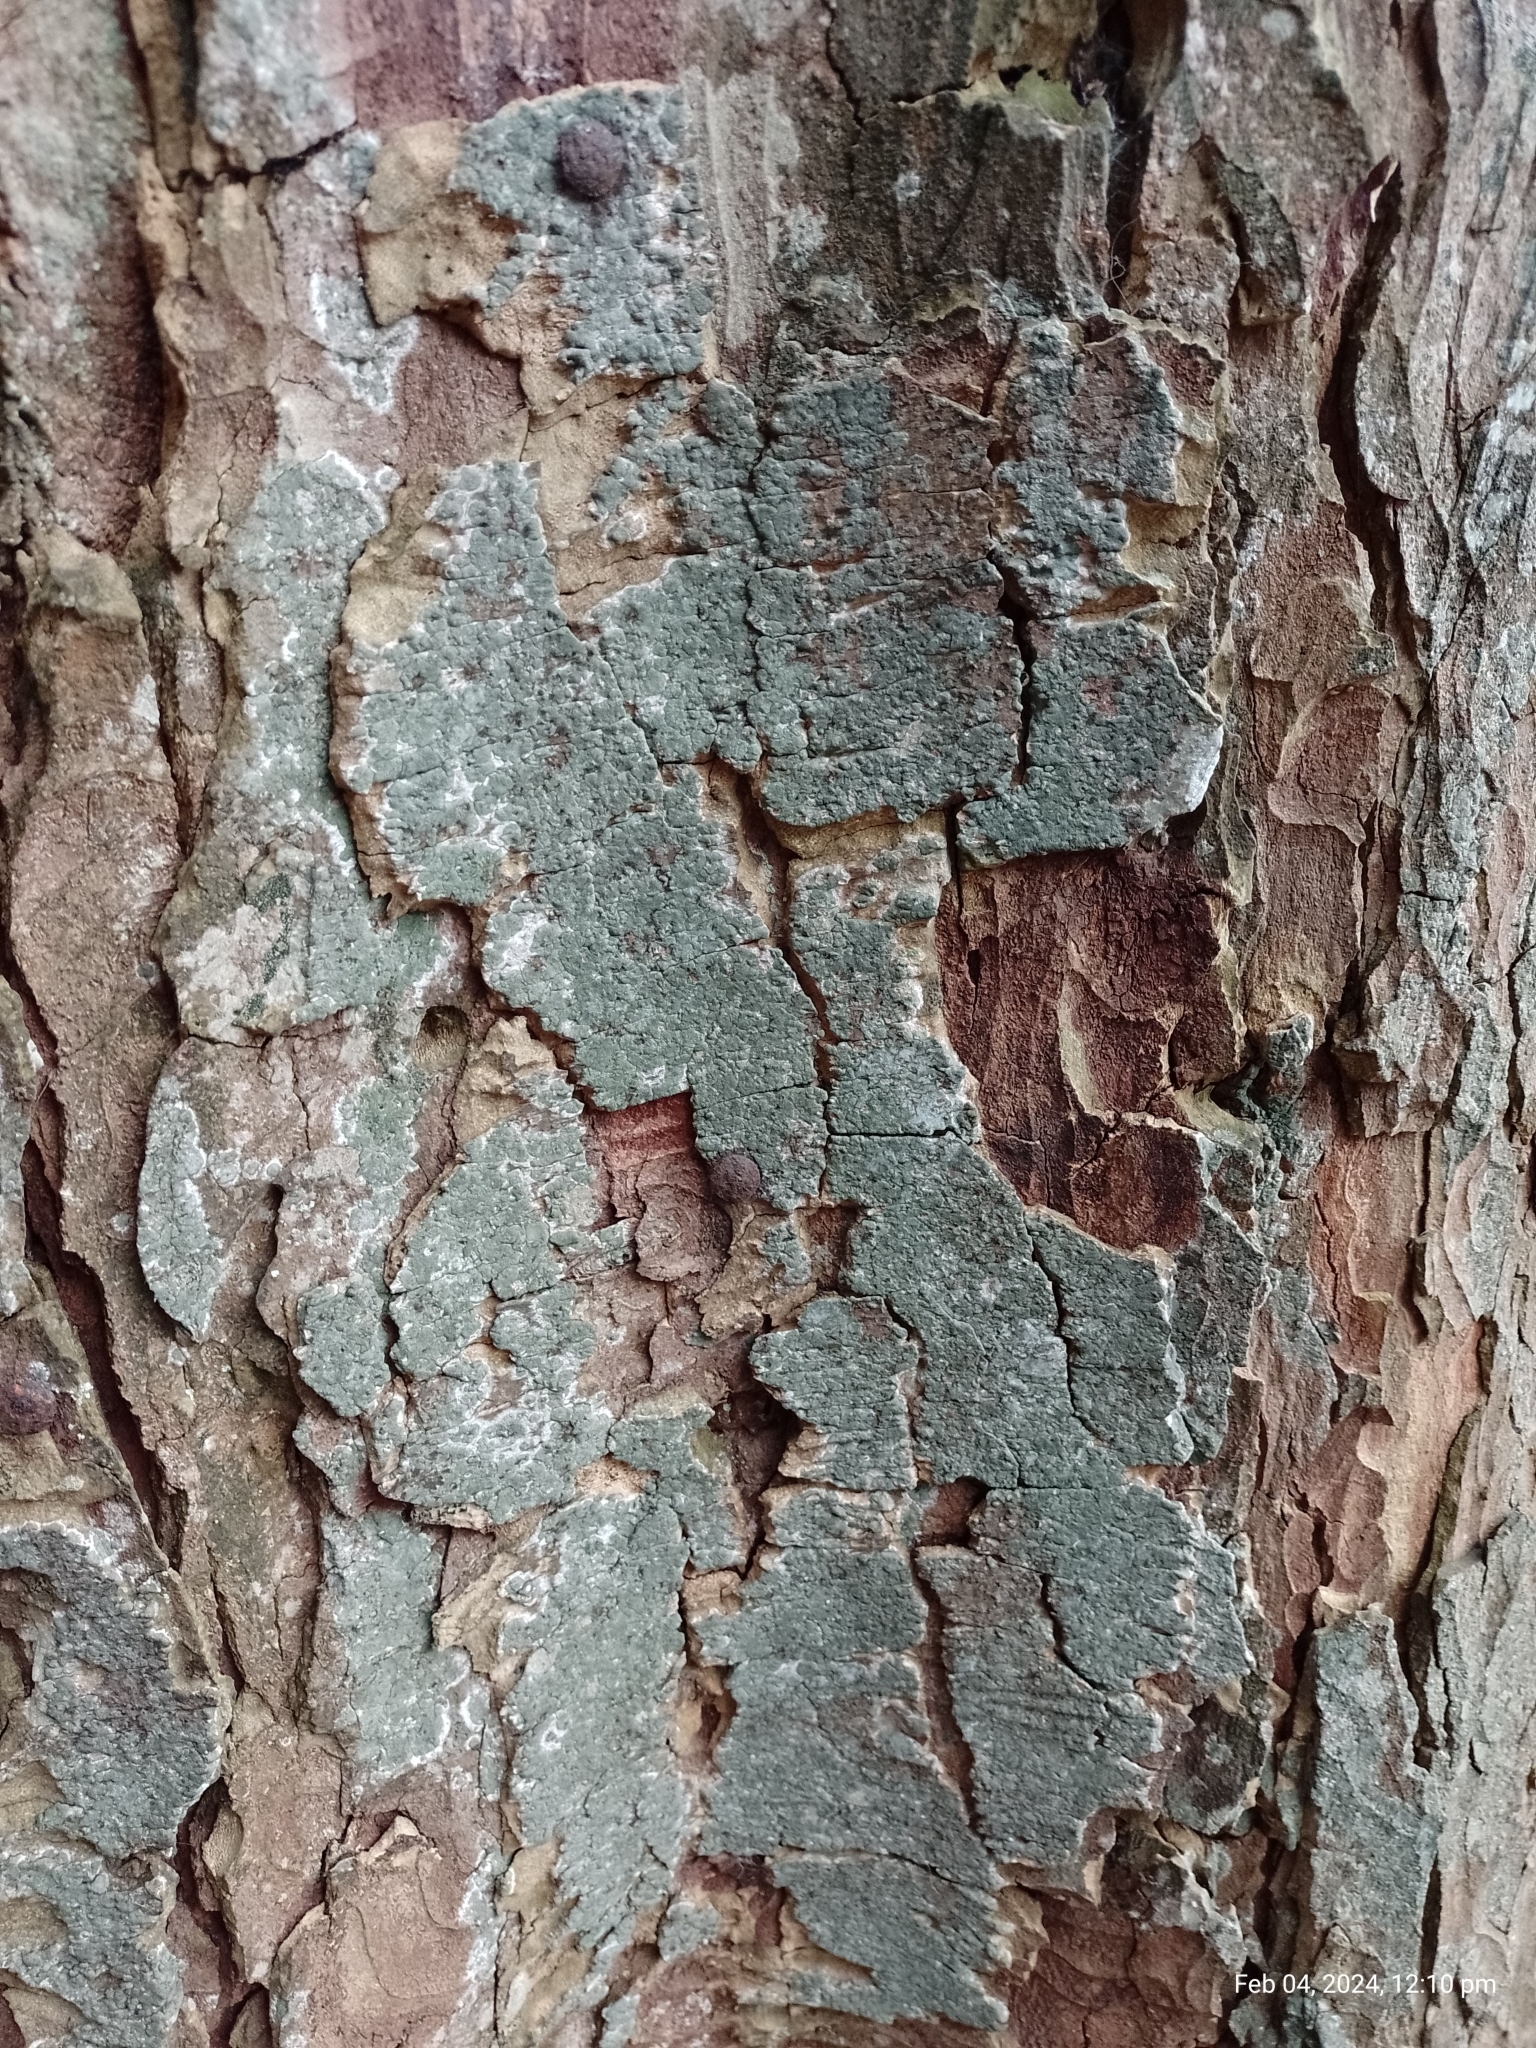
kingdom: Fungi
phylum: Ascomycota
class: Sordariomycetes
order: Hypocreales
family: Hypocreaceae
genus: Trichoderma
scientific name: Trichoderma viride
